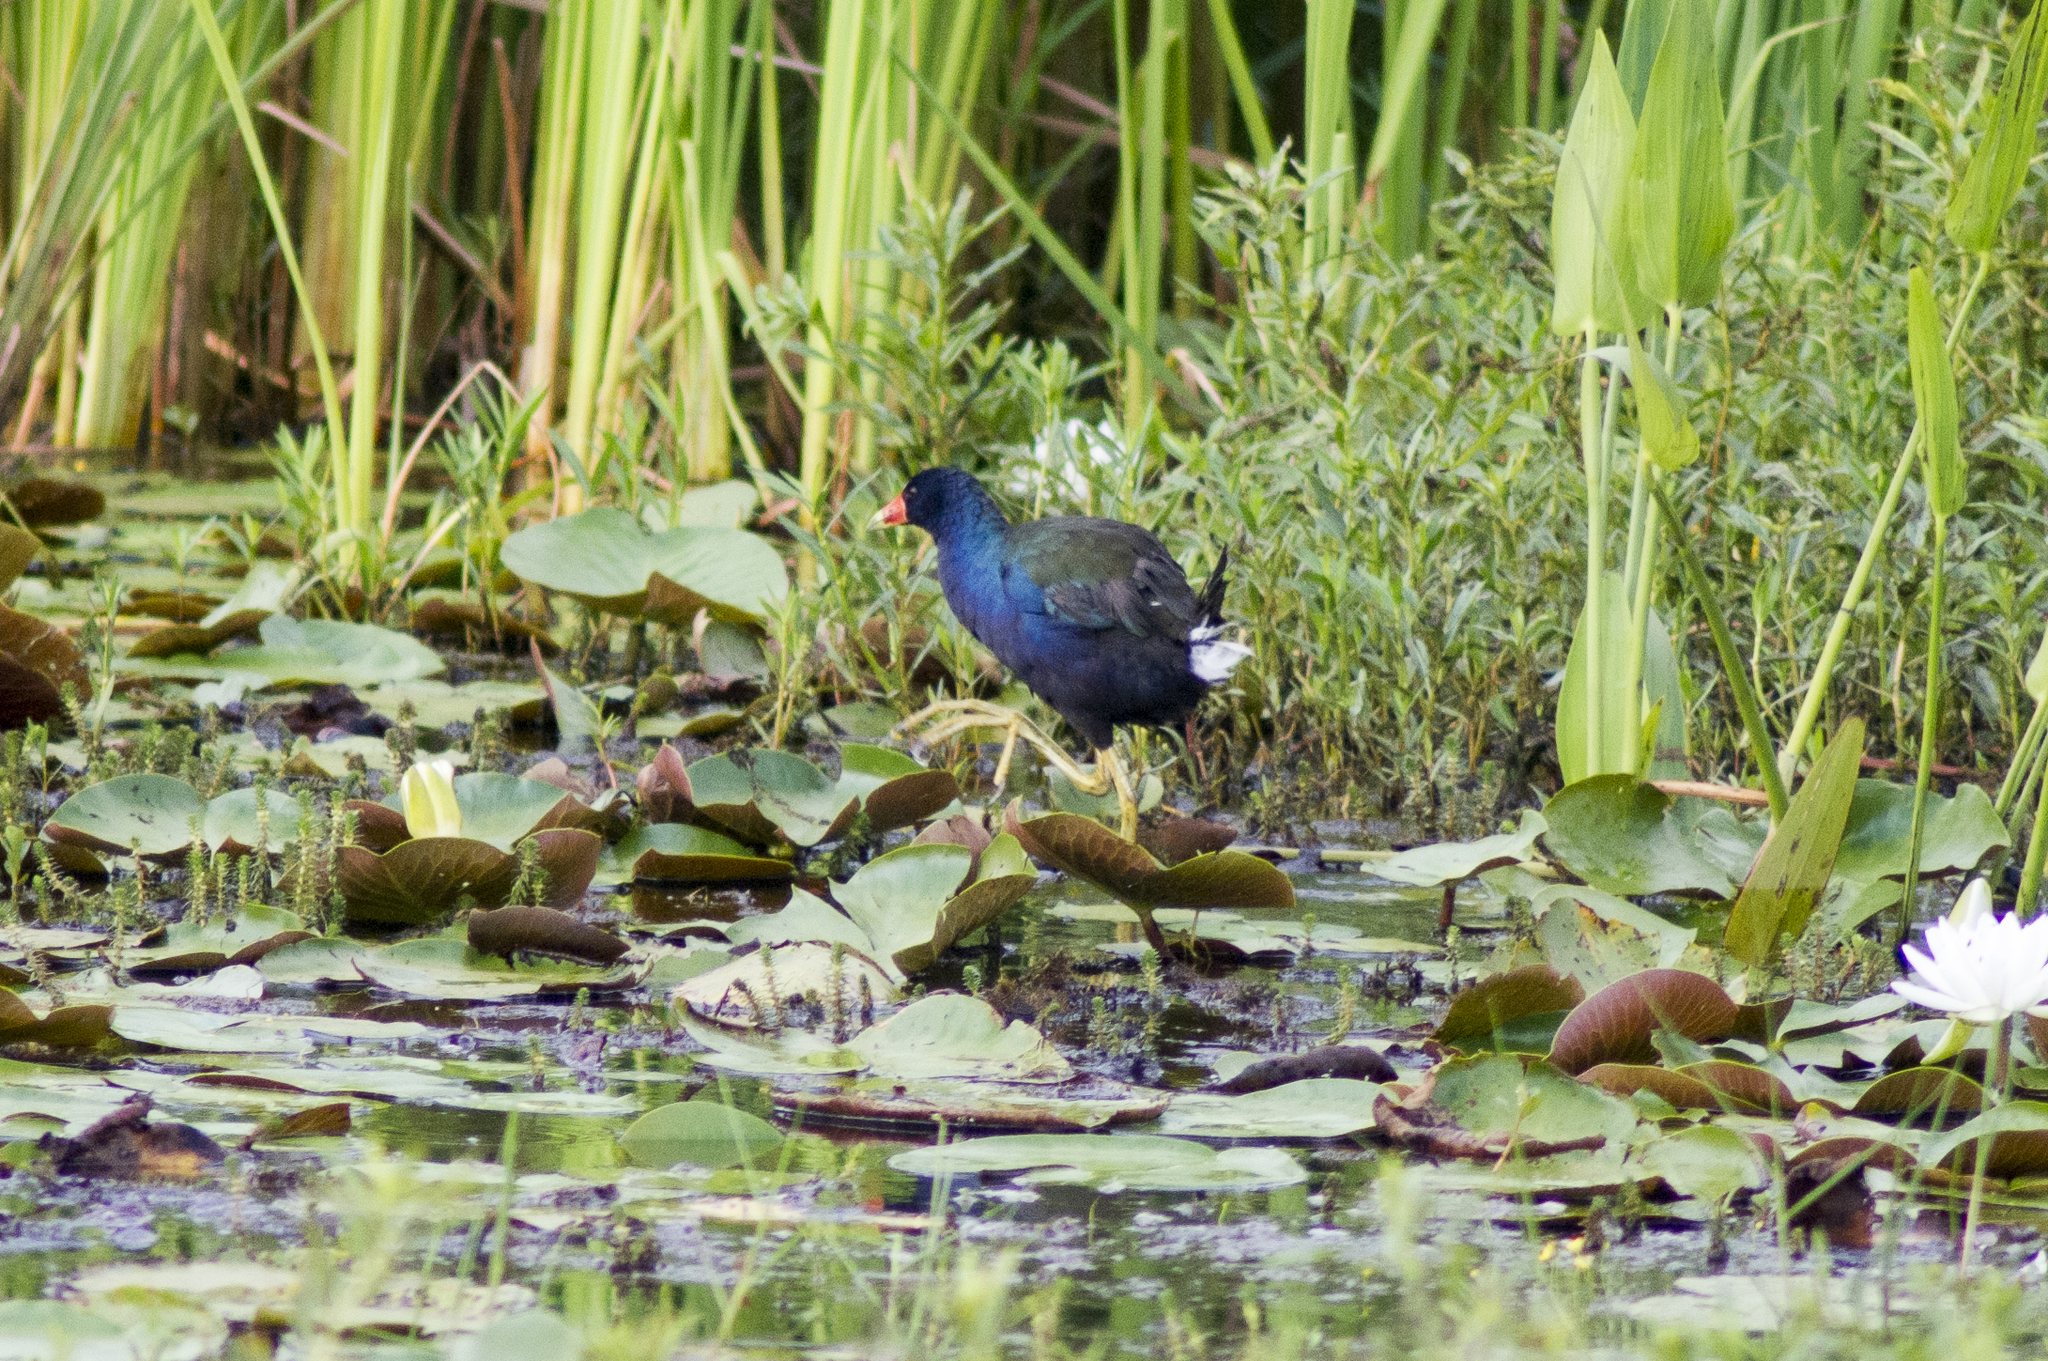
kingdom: Animalia
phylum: Chordata
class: Aves
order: Gruiformes
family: Rallidae
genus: Porphyrio
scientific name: Porphyrio martinica
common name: Purple gallinule
